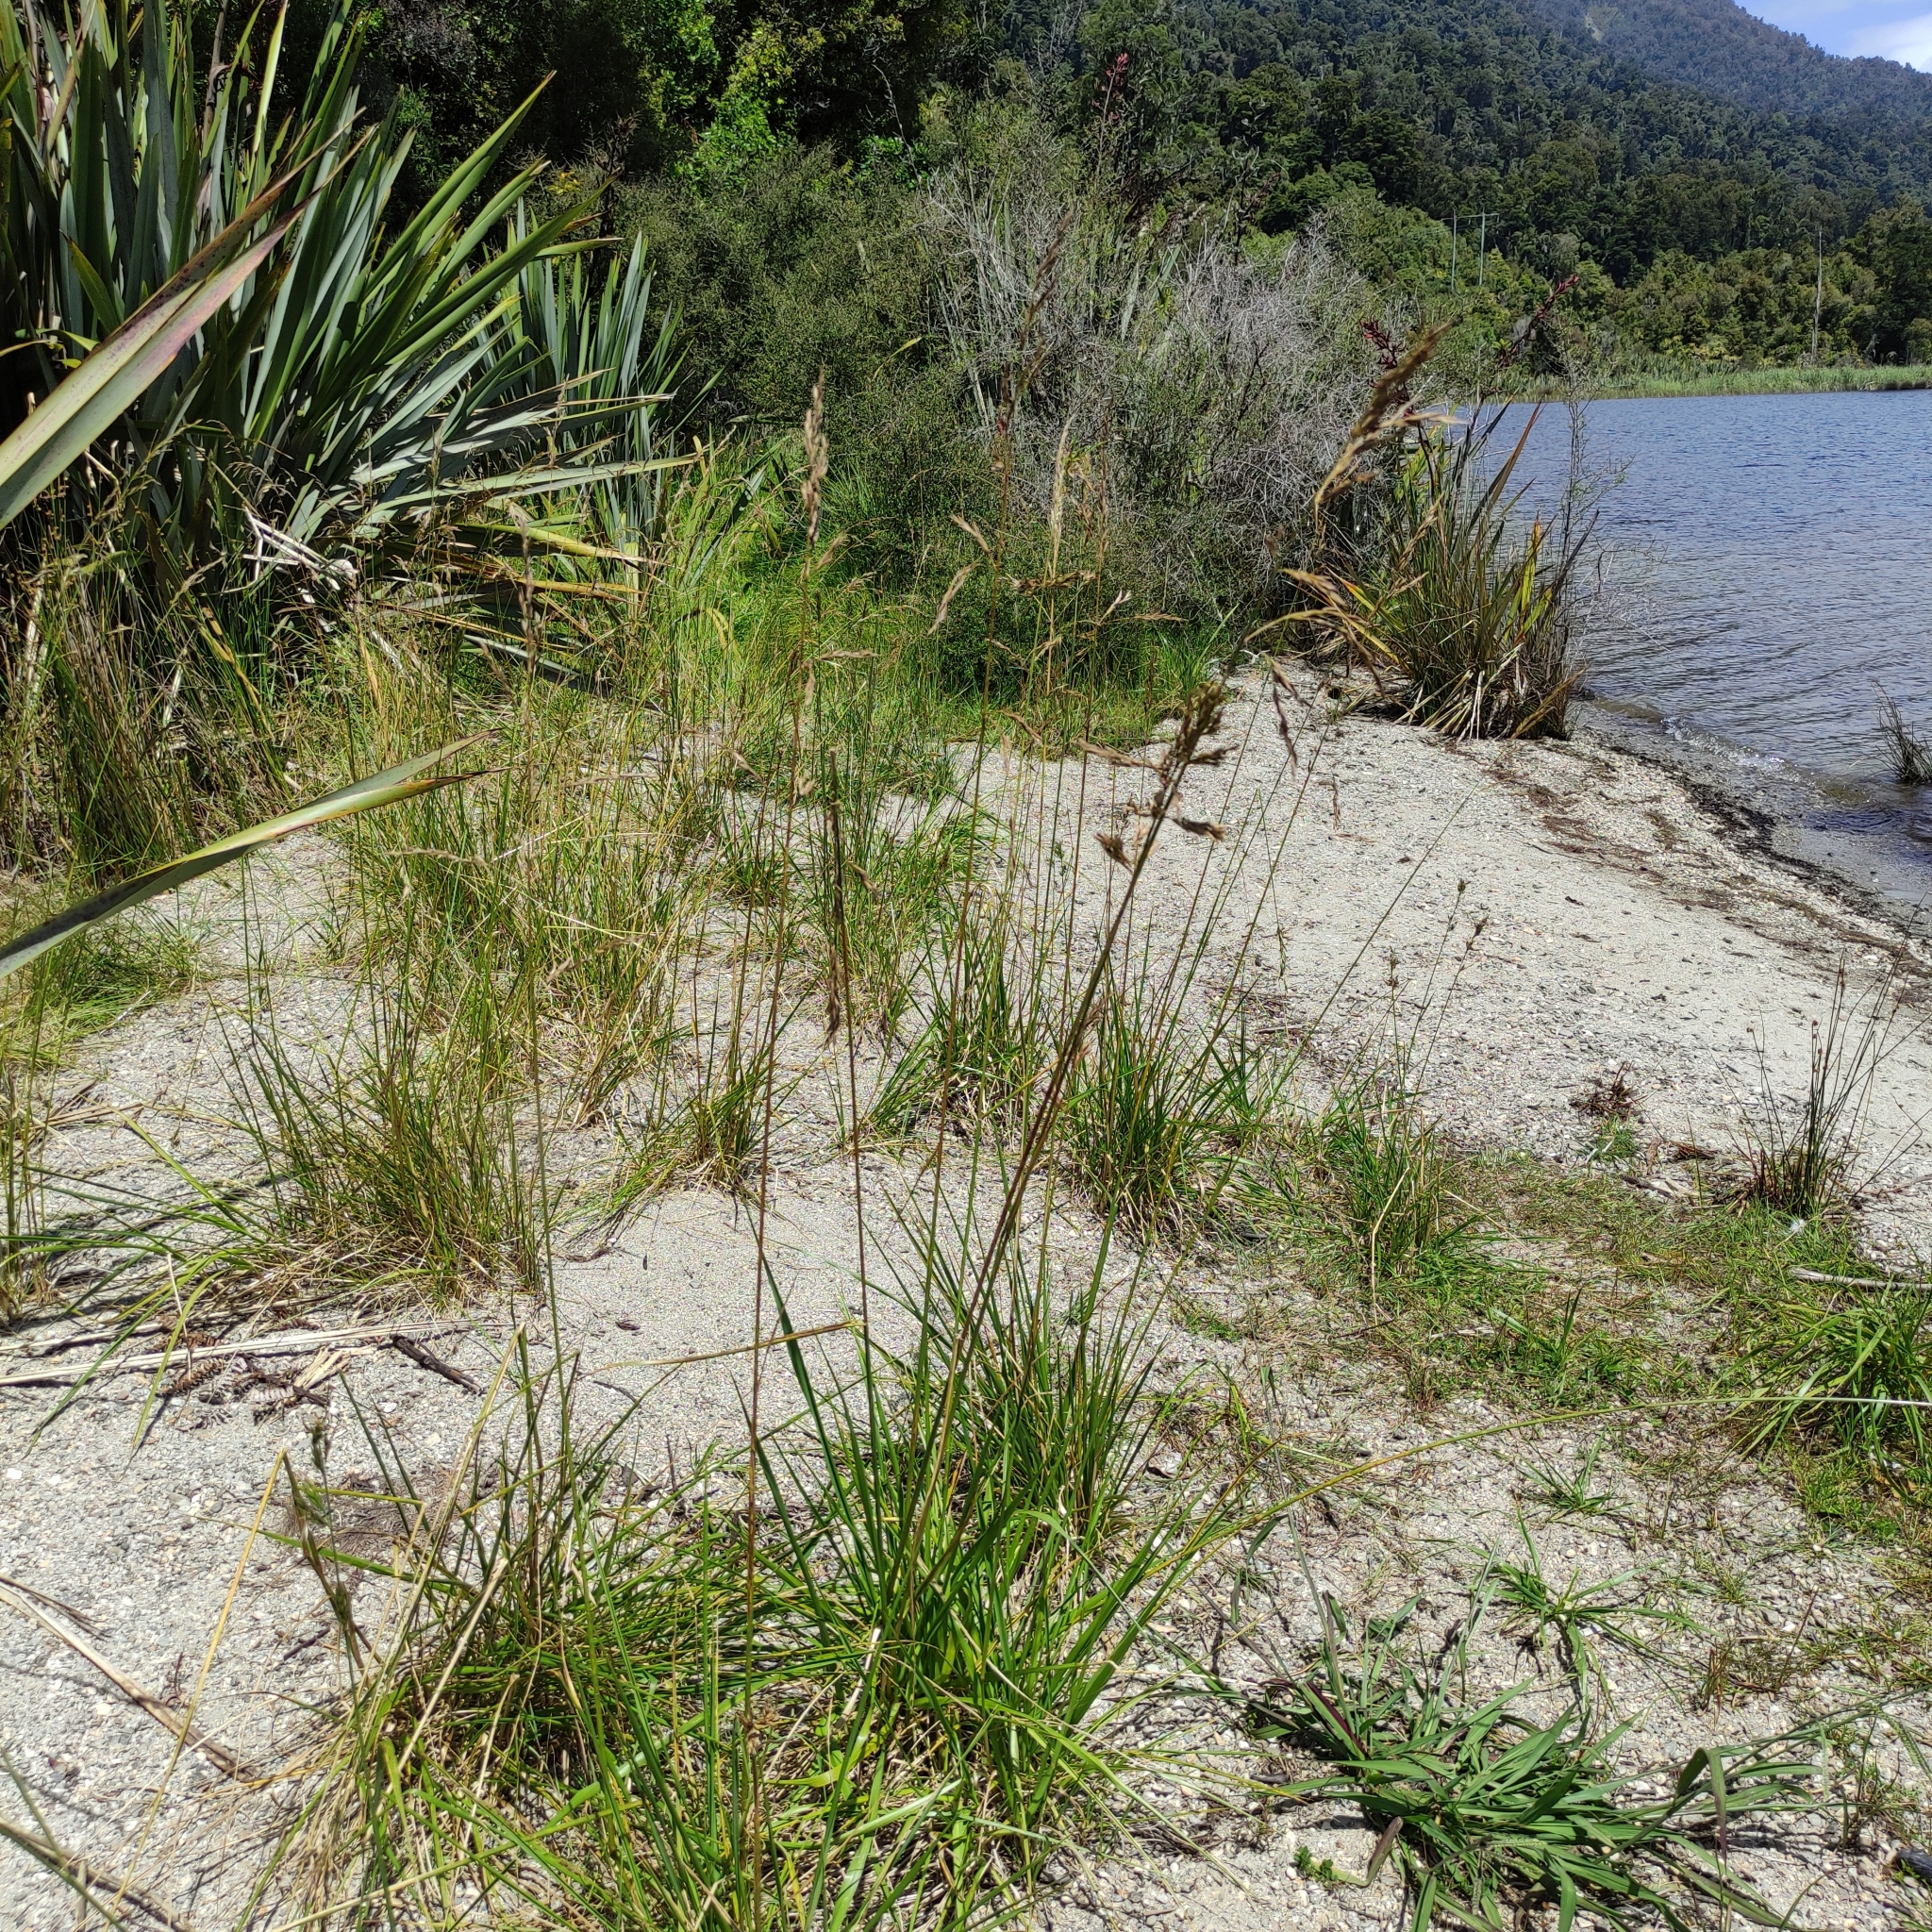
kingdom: Plantae
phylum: Tracheophyta
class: Liliopsida
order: Poales
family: Poaceae
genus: Lolium
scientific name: Lolium arundinaceum
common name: Reed fescue
